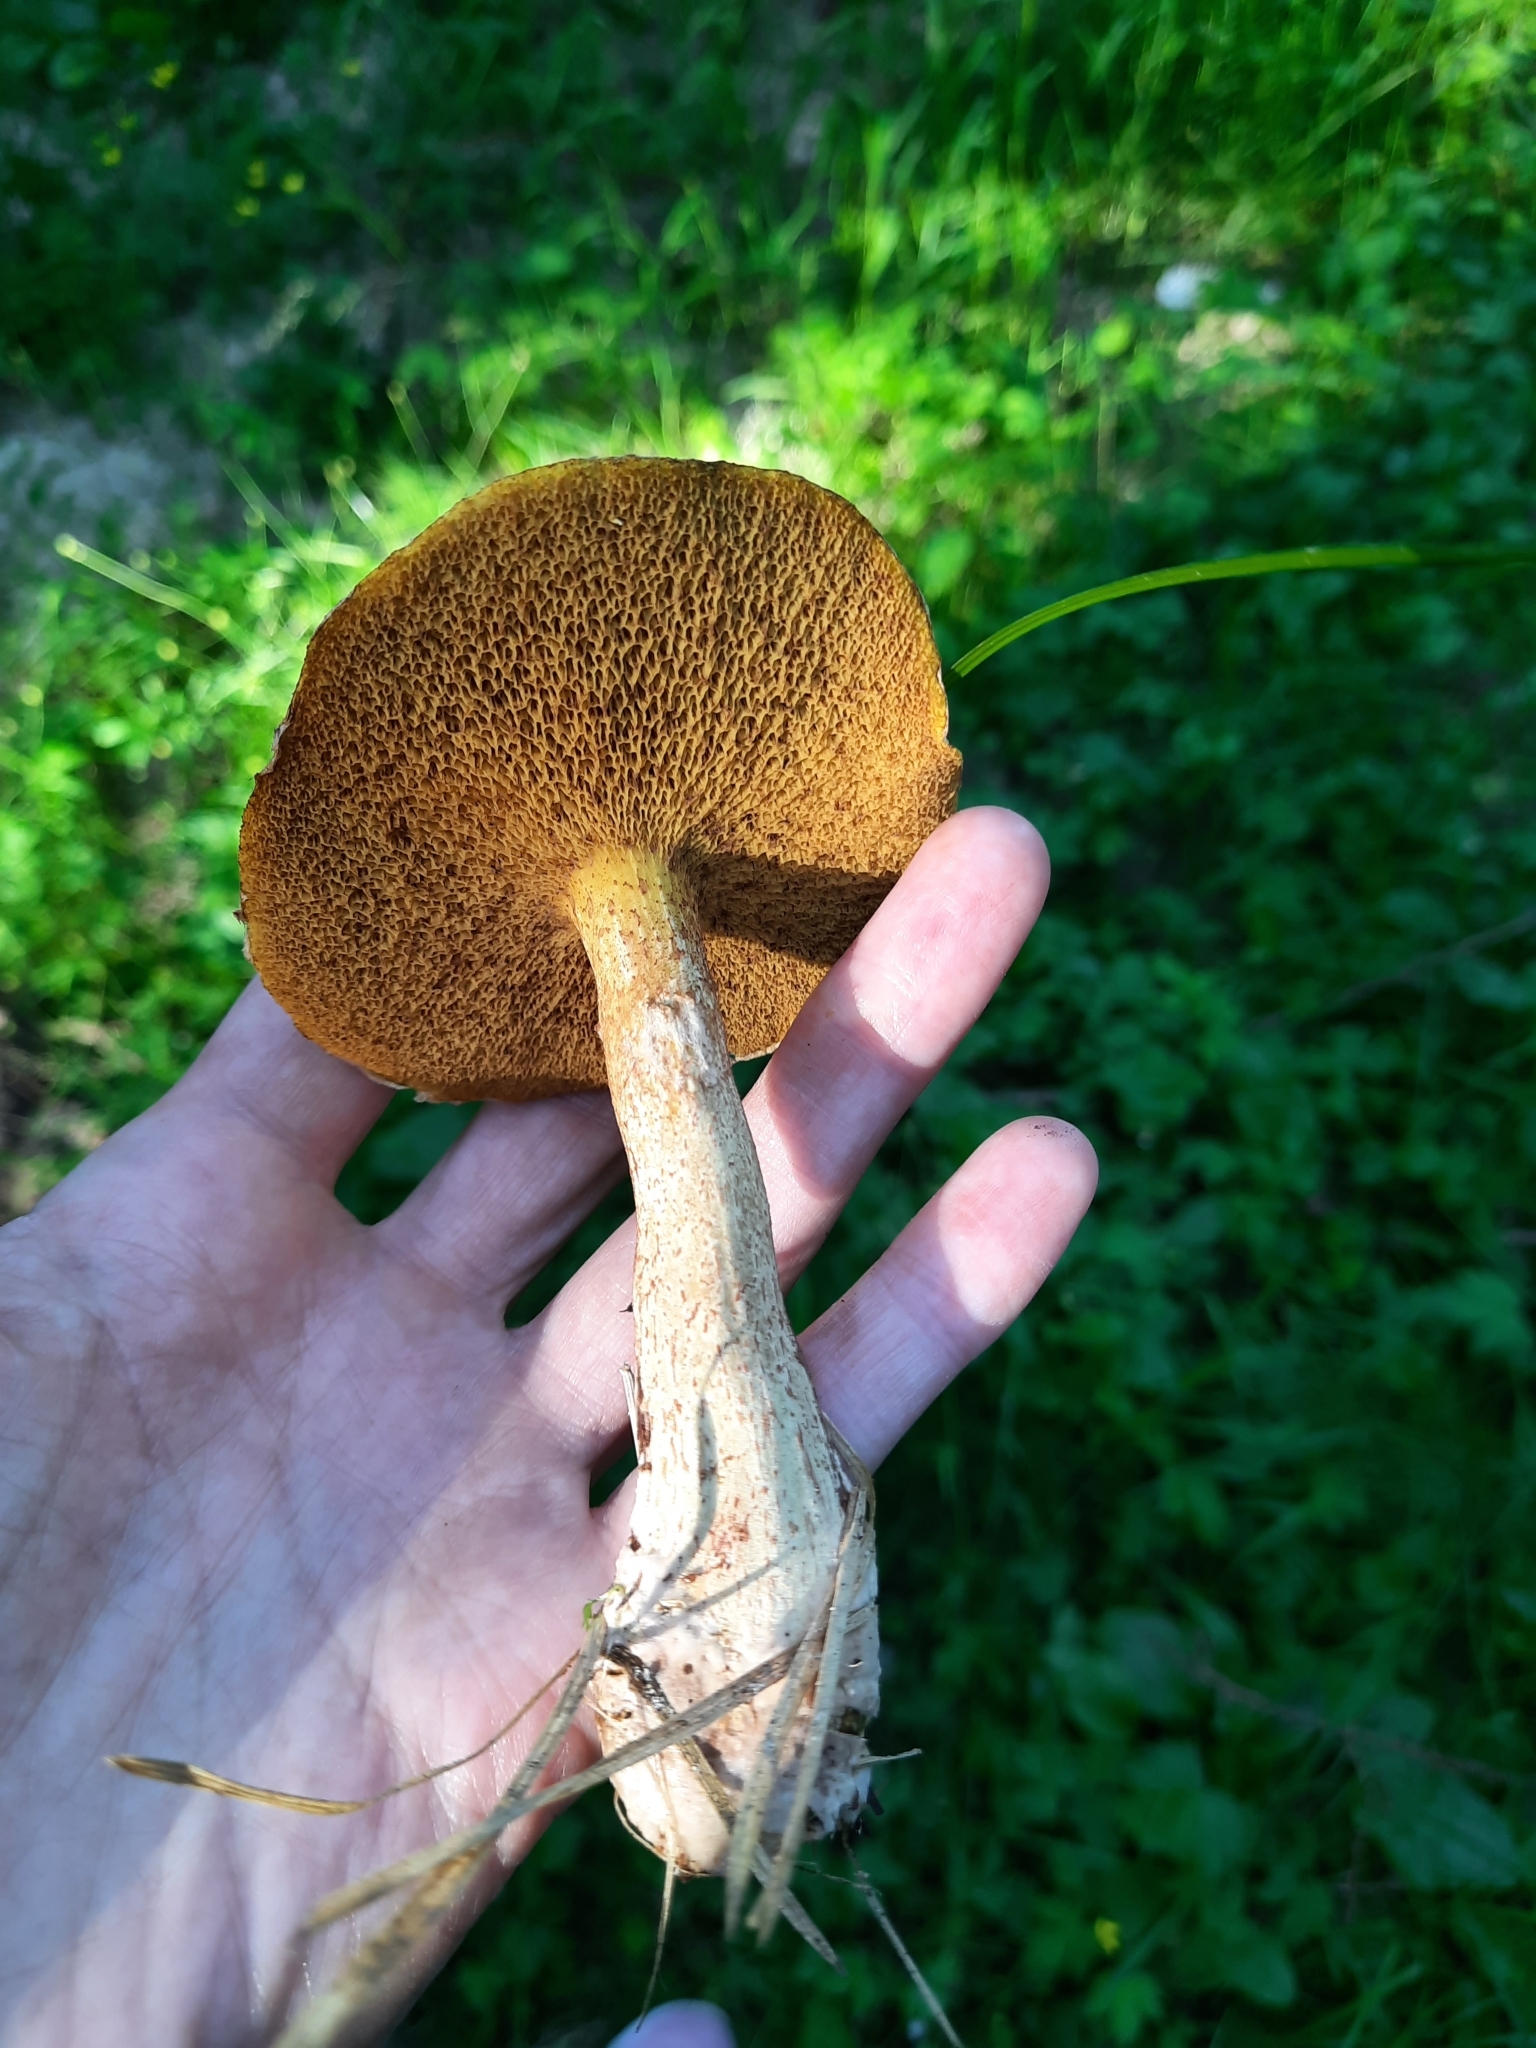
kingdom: Fungi
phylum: Basidiomycota
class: Agaricomycetes
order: Boletales
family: Suillaceae
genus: Suillus
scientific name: Suillus americanus
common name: Chicken fat mushroom
